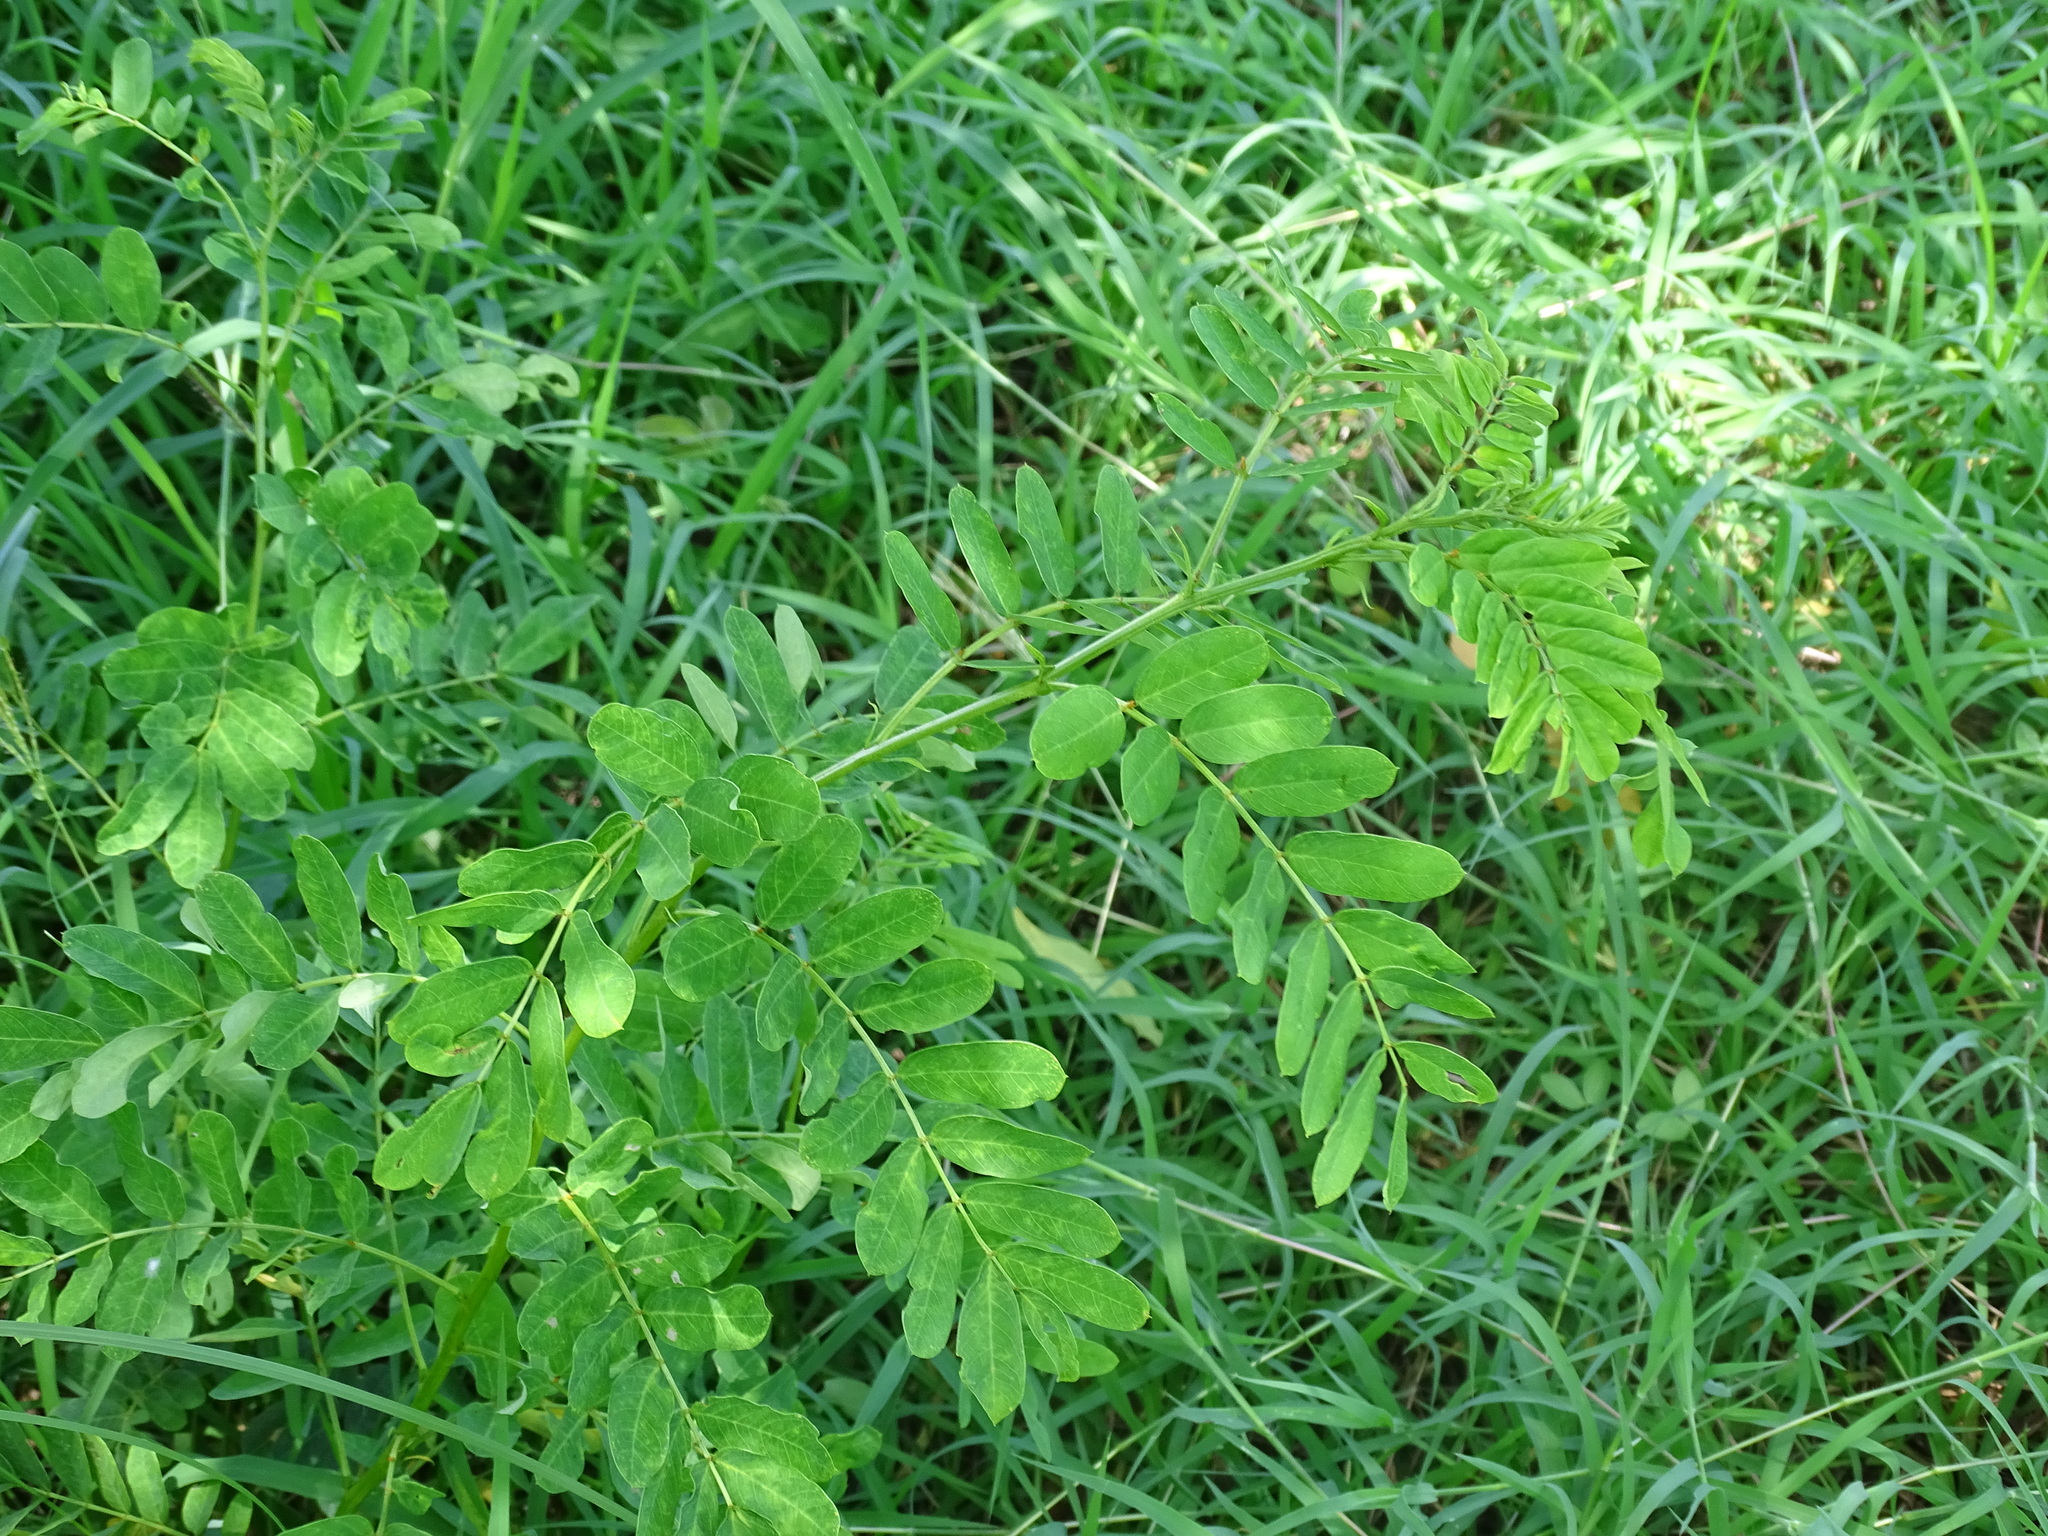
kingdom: Plantae
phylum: Tracheophyta
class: Magnoliopsida
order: Fabales
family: Fabaceae
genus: Senna
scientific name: Senna pallida
